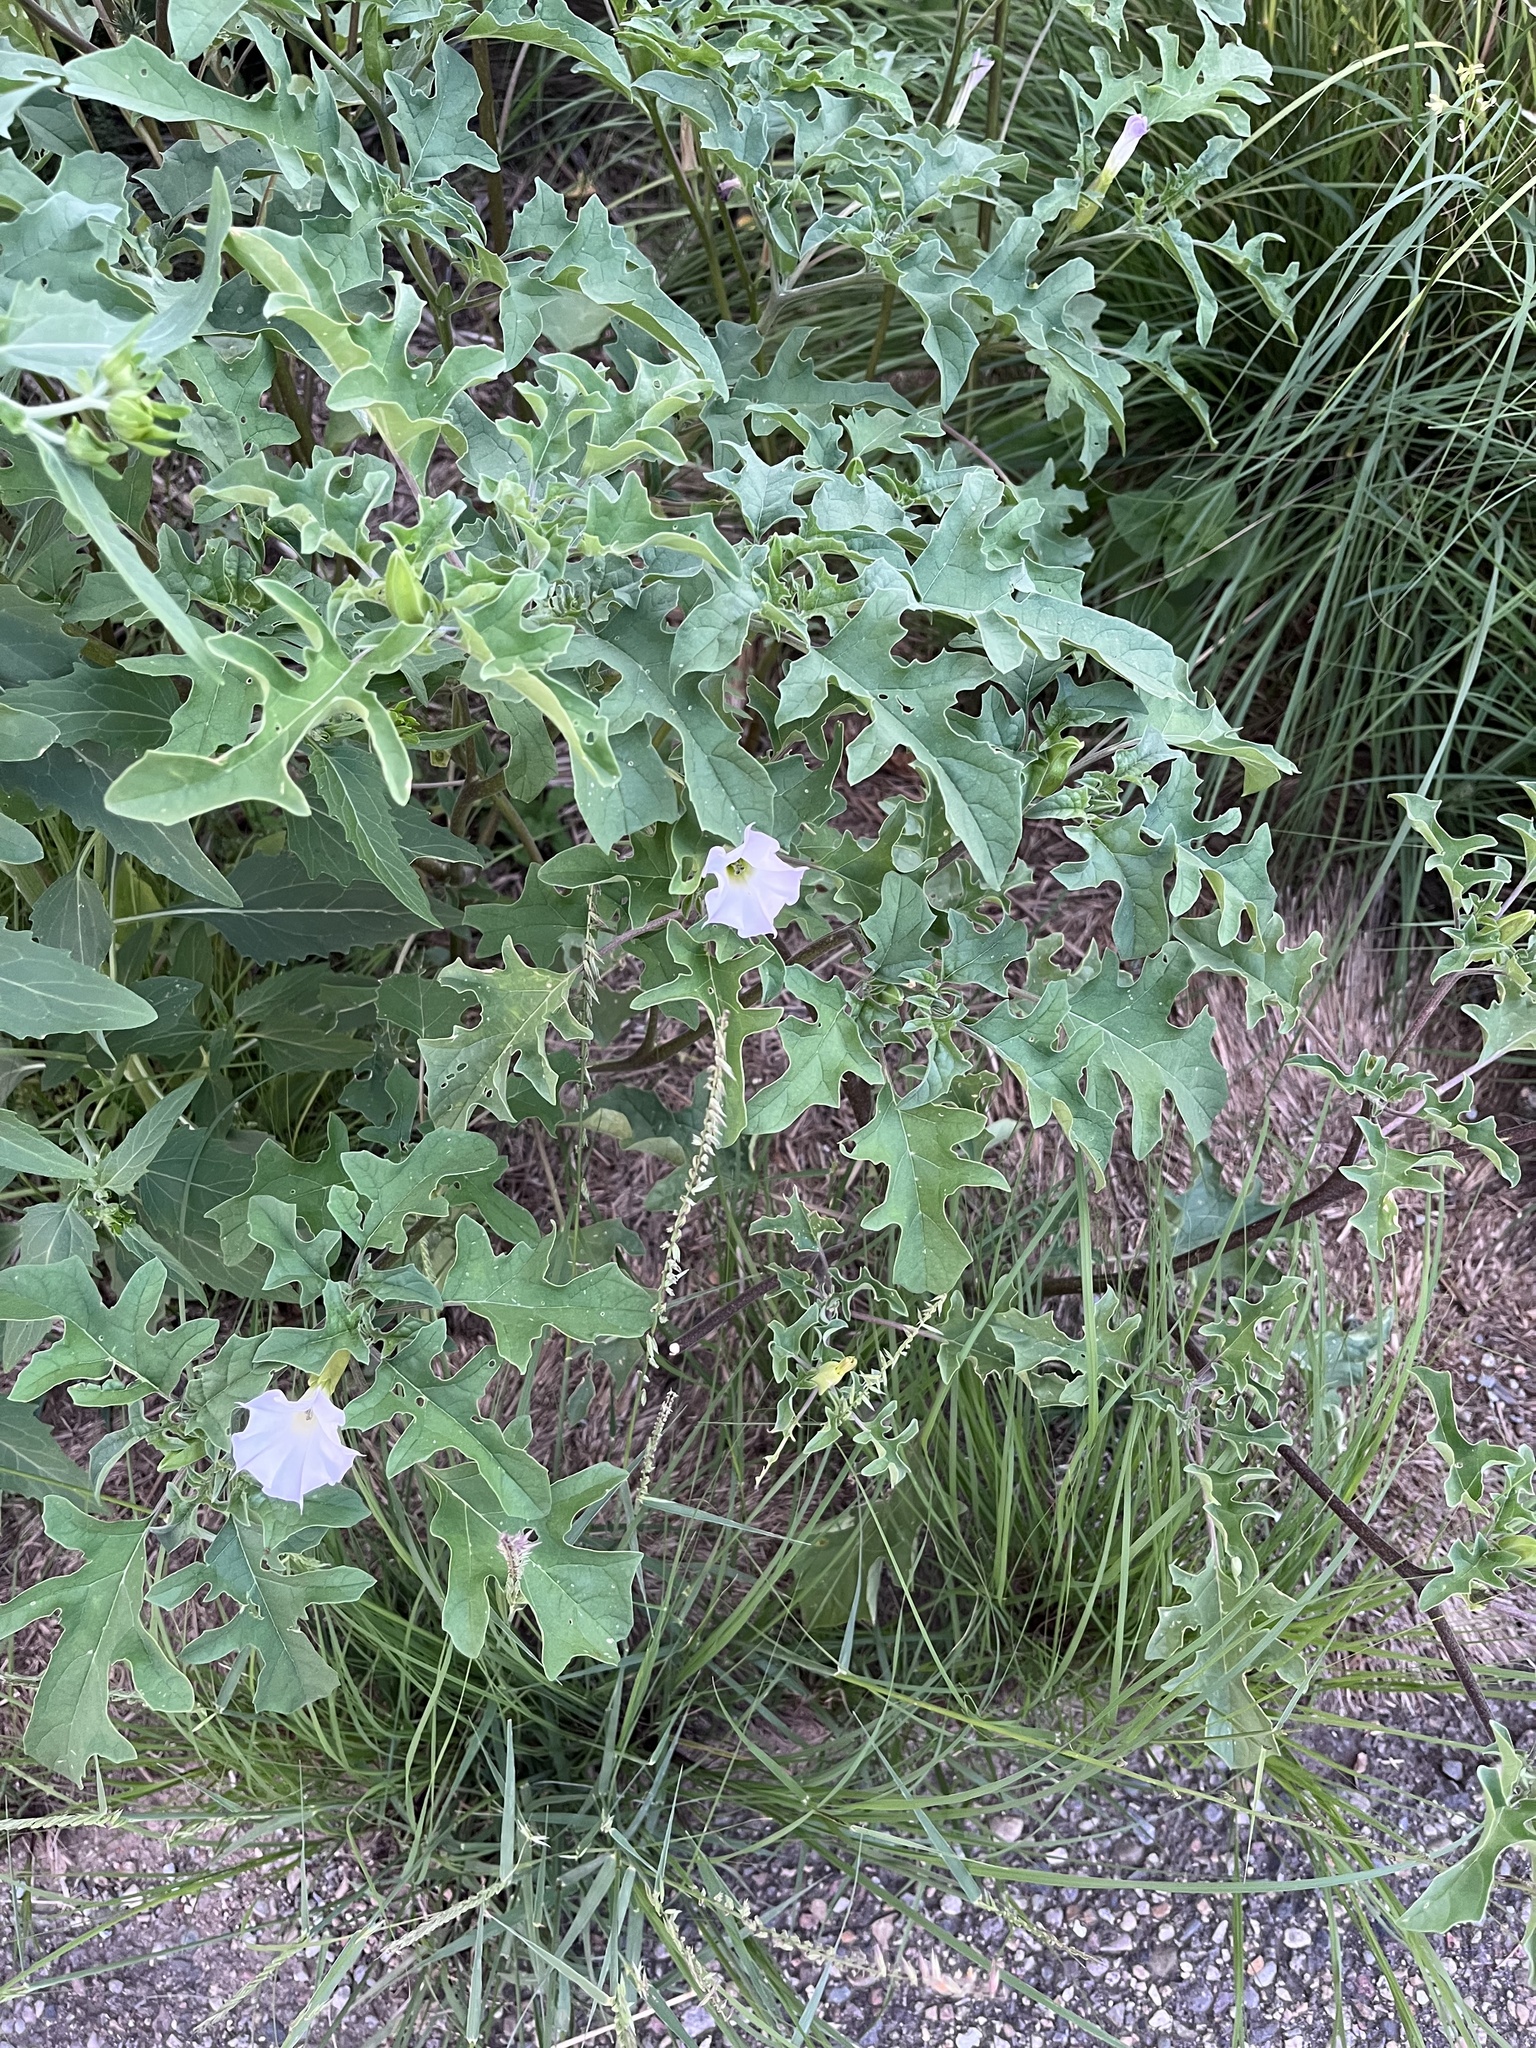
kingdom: Plantae
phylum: Tracheophyta
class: Magnoliopsida
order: Solanales
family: Solanaceae
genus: Datura
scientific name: Datura quercifolia
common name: Oak-leaf datura
